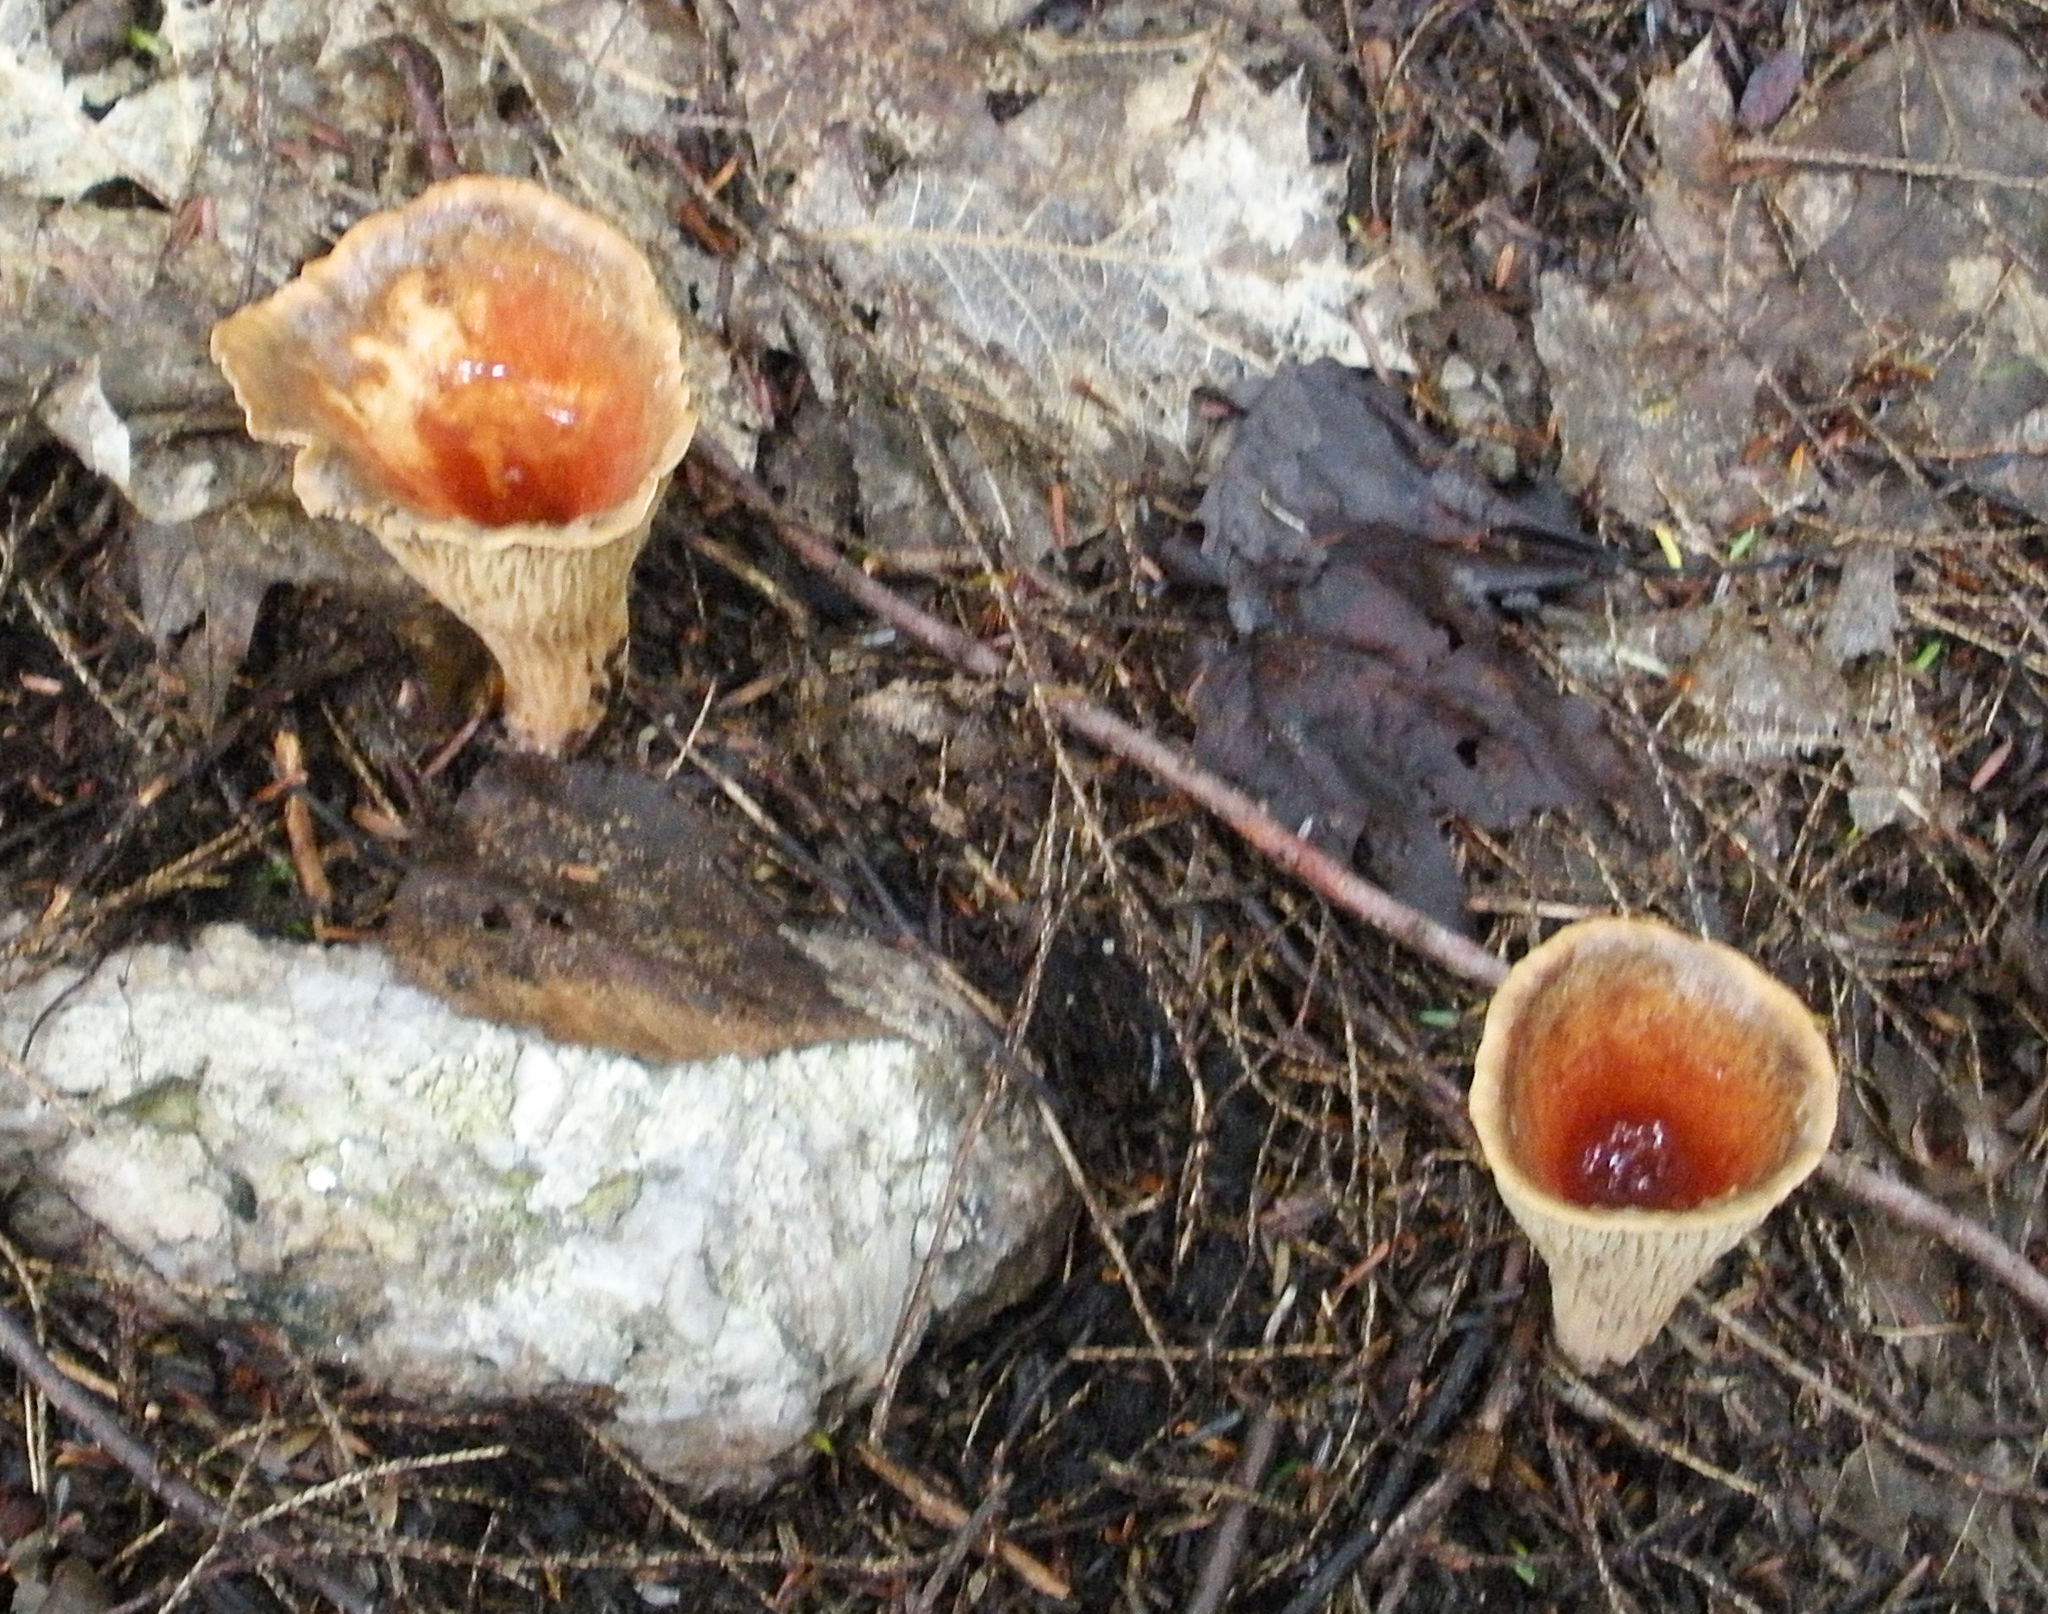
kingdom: Fungi
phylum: Basidiomycota
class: Agaricomycetes
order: Gomphales
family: Gomphaceae
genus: Turbinellus
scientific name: Turbinellus floccosus
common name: Scaly chanterelle
